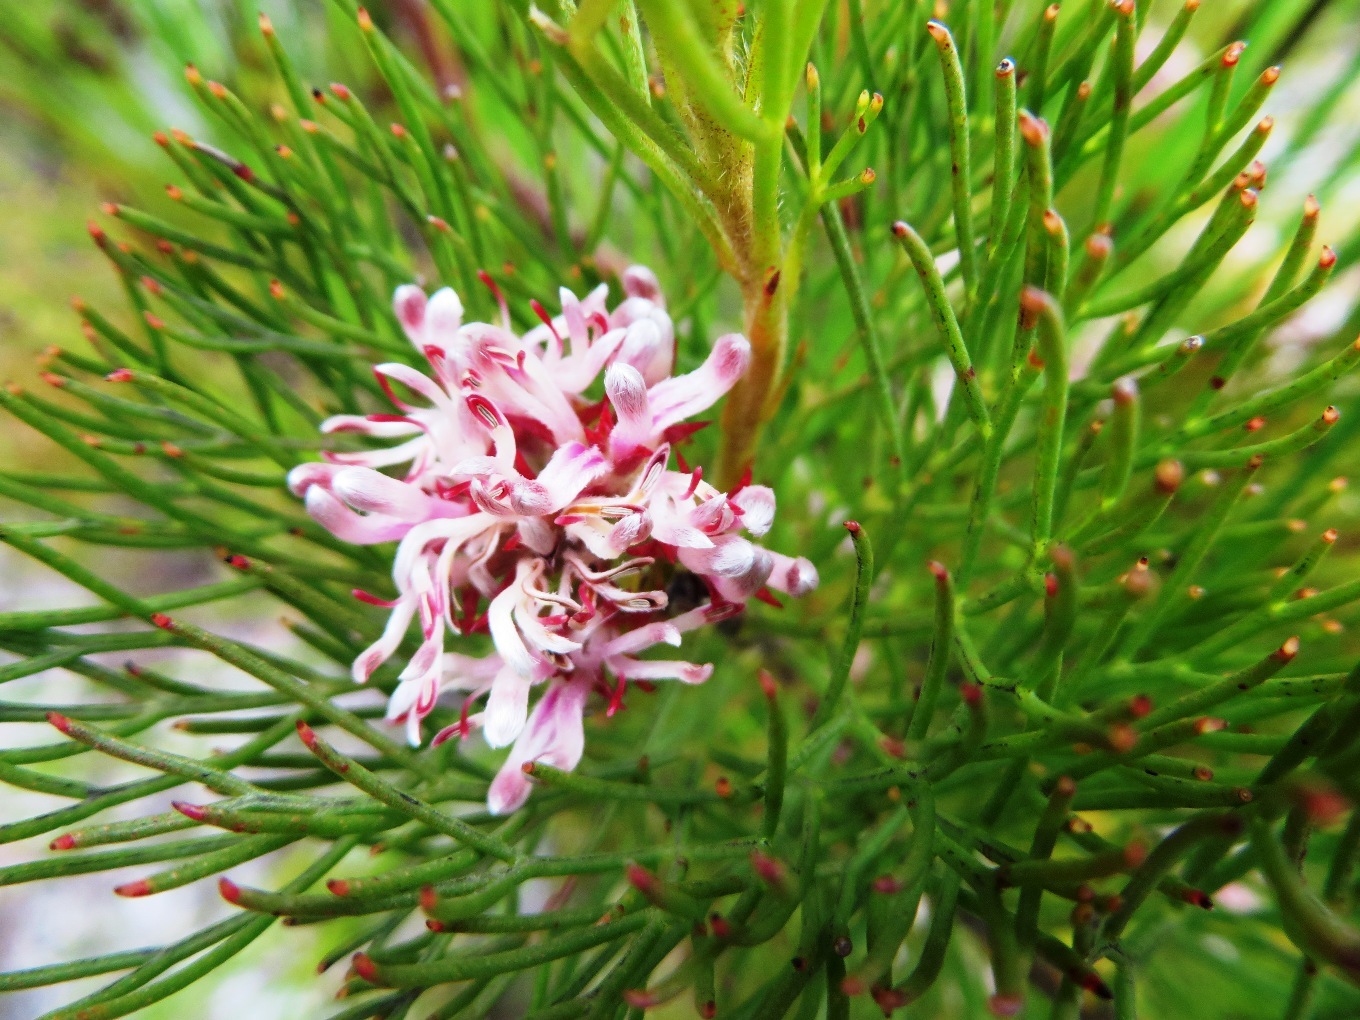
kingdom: Plantae
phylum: Tracheophyta
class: Magnoliopsida
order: Proteales
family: Proteaceae
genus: Serruria
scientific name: Serruria ascendens
